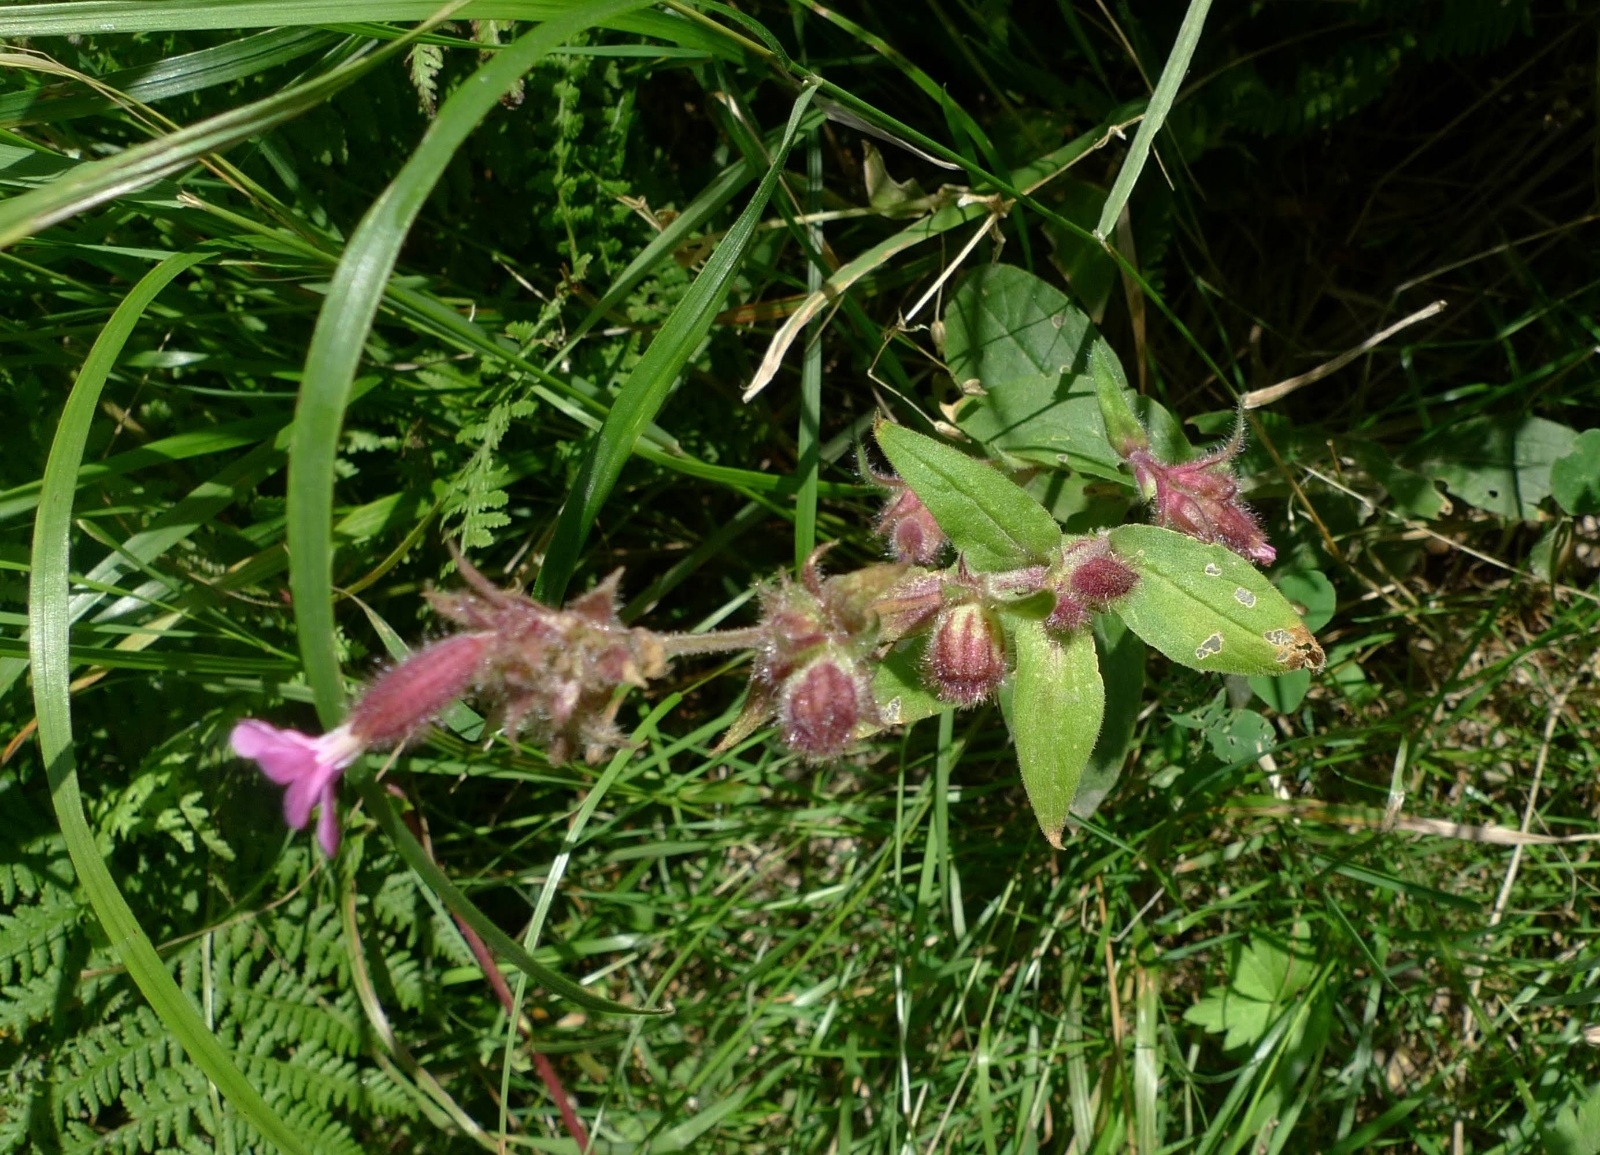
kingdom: Plantae
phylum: Tracheophyta
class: Magnoliopsida
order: Caryophyllales
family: Caryophyllaceae
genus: Silene
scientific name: Silene dioica
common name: Red campion
